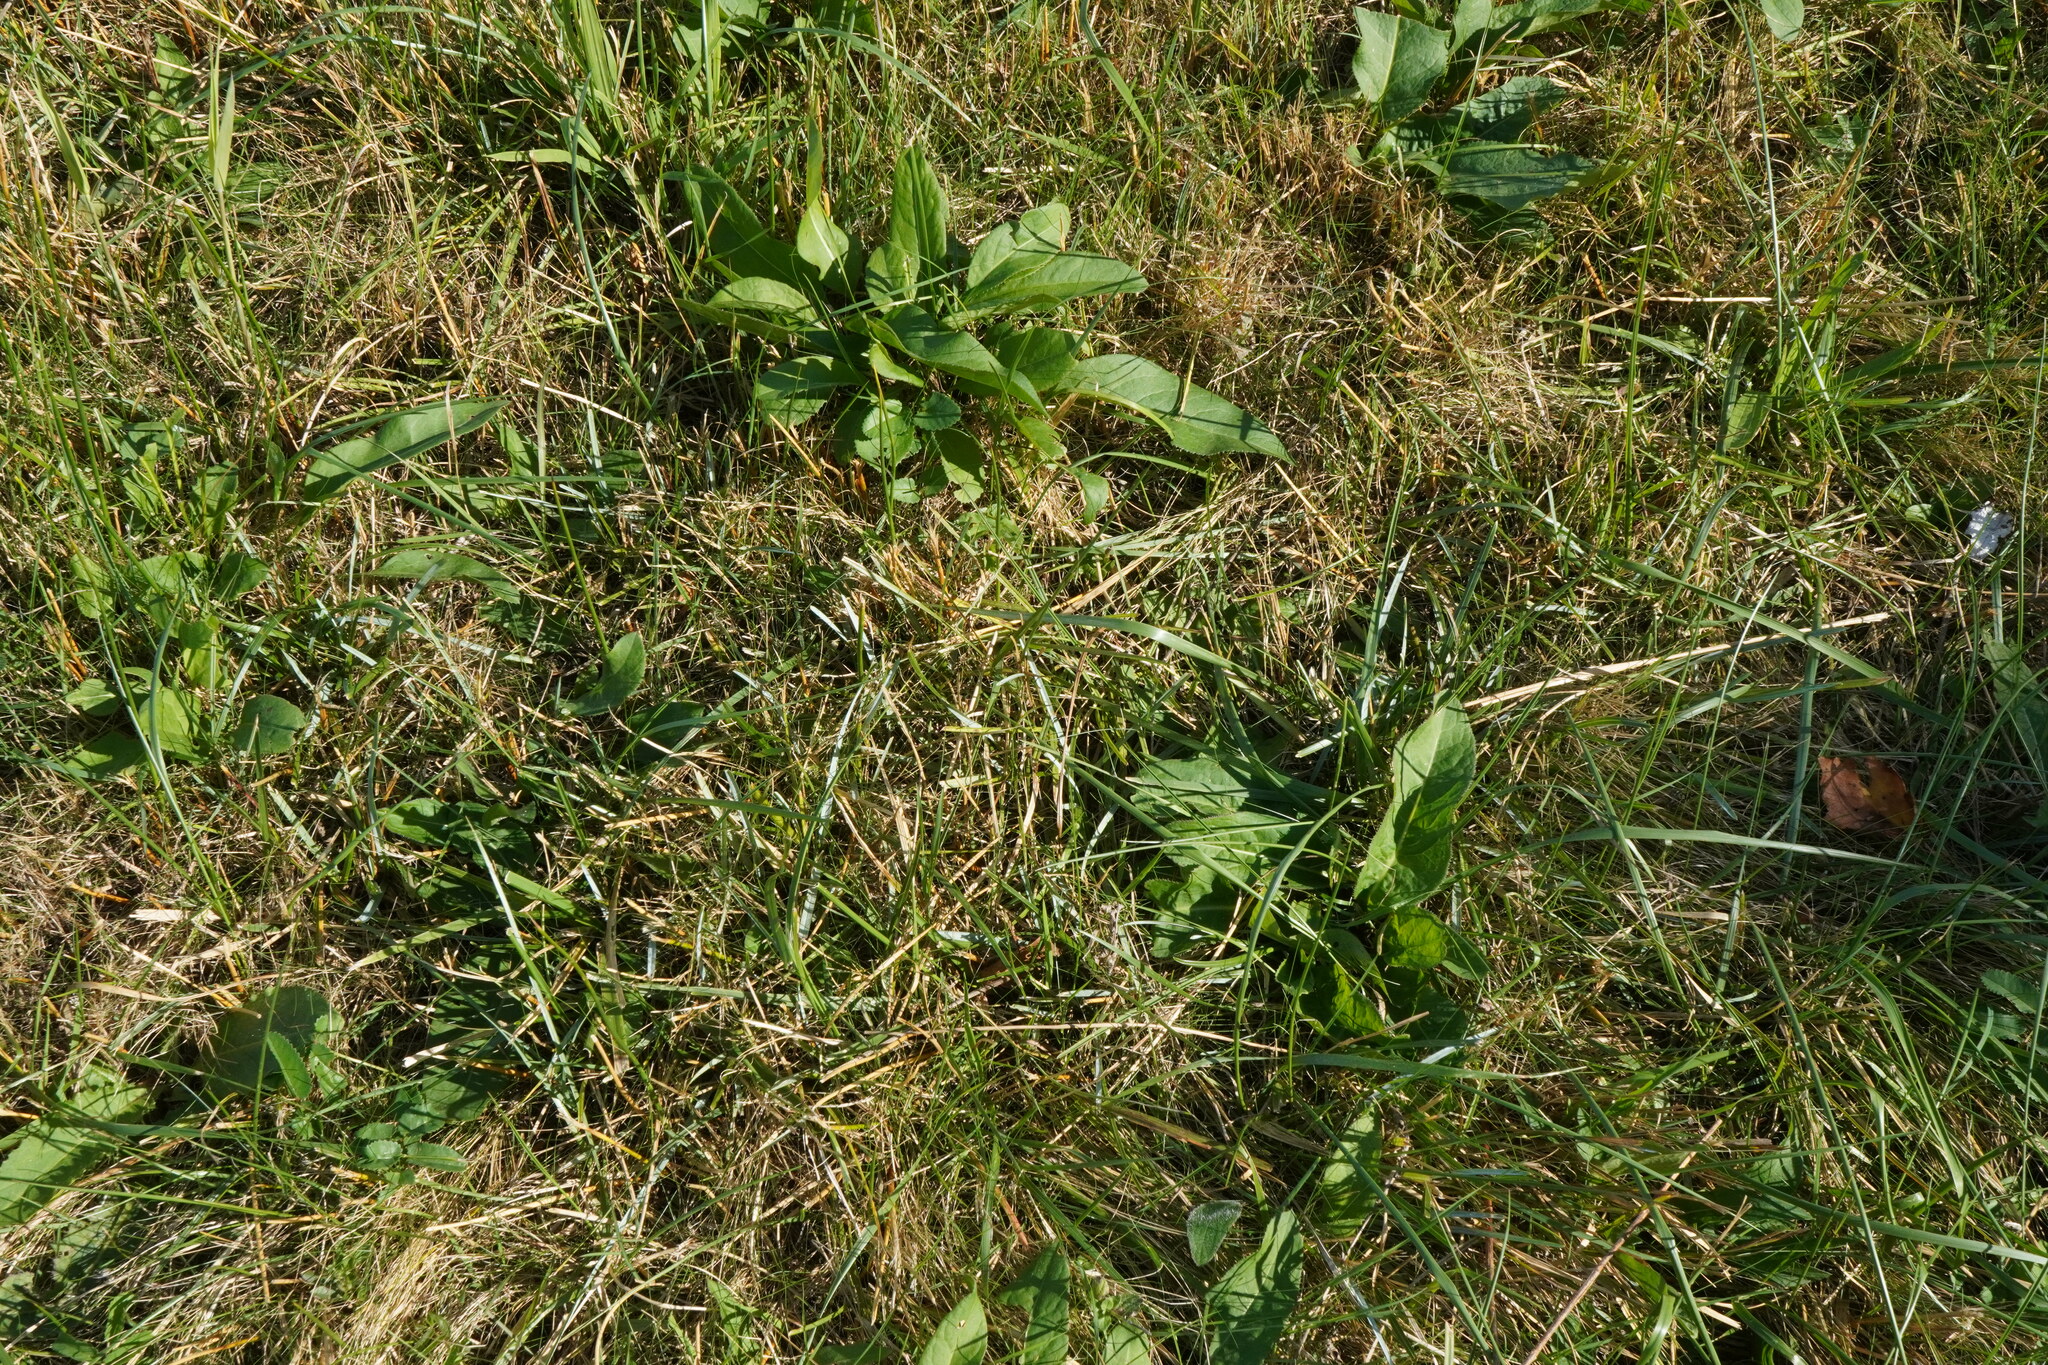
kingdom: Plantae
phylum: Tracheophyta
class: Liliopsida
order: Poales
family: Poaceae
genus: Sesleria
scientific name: Sesleria uliginosa
